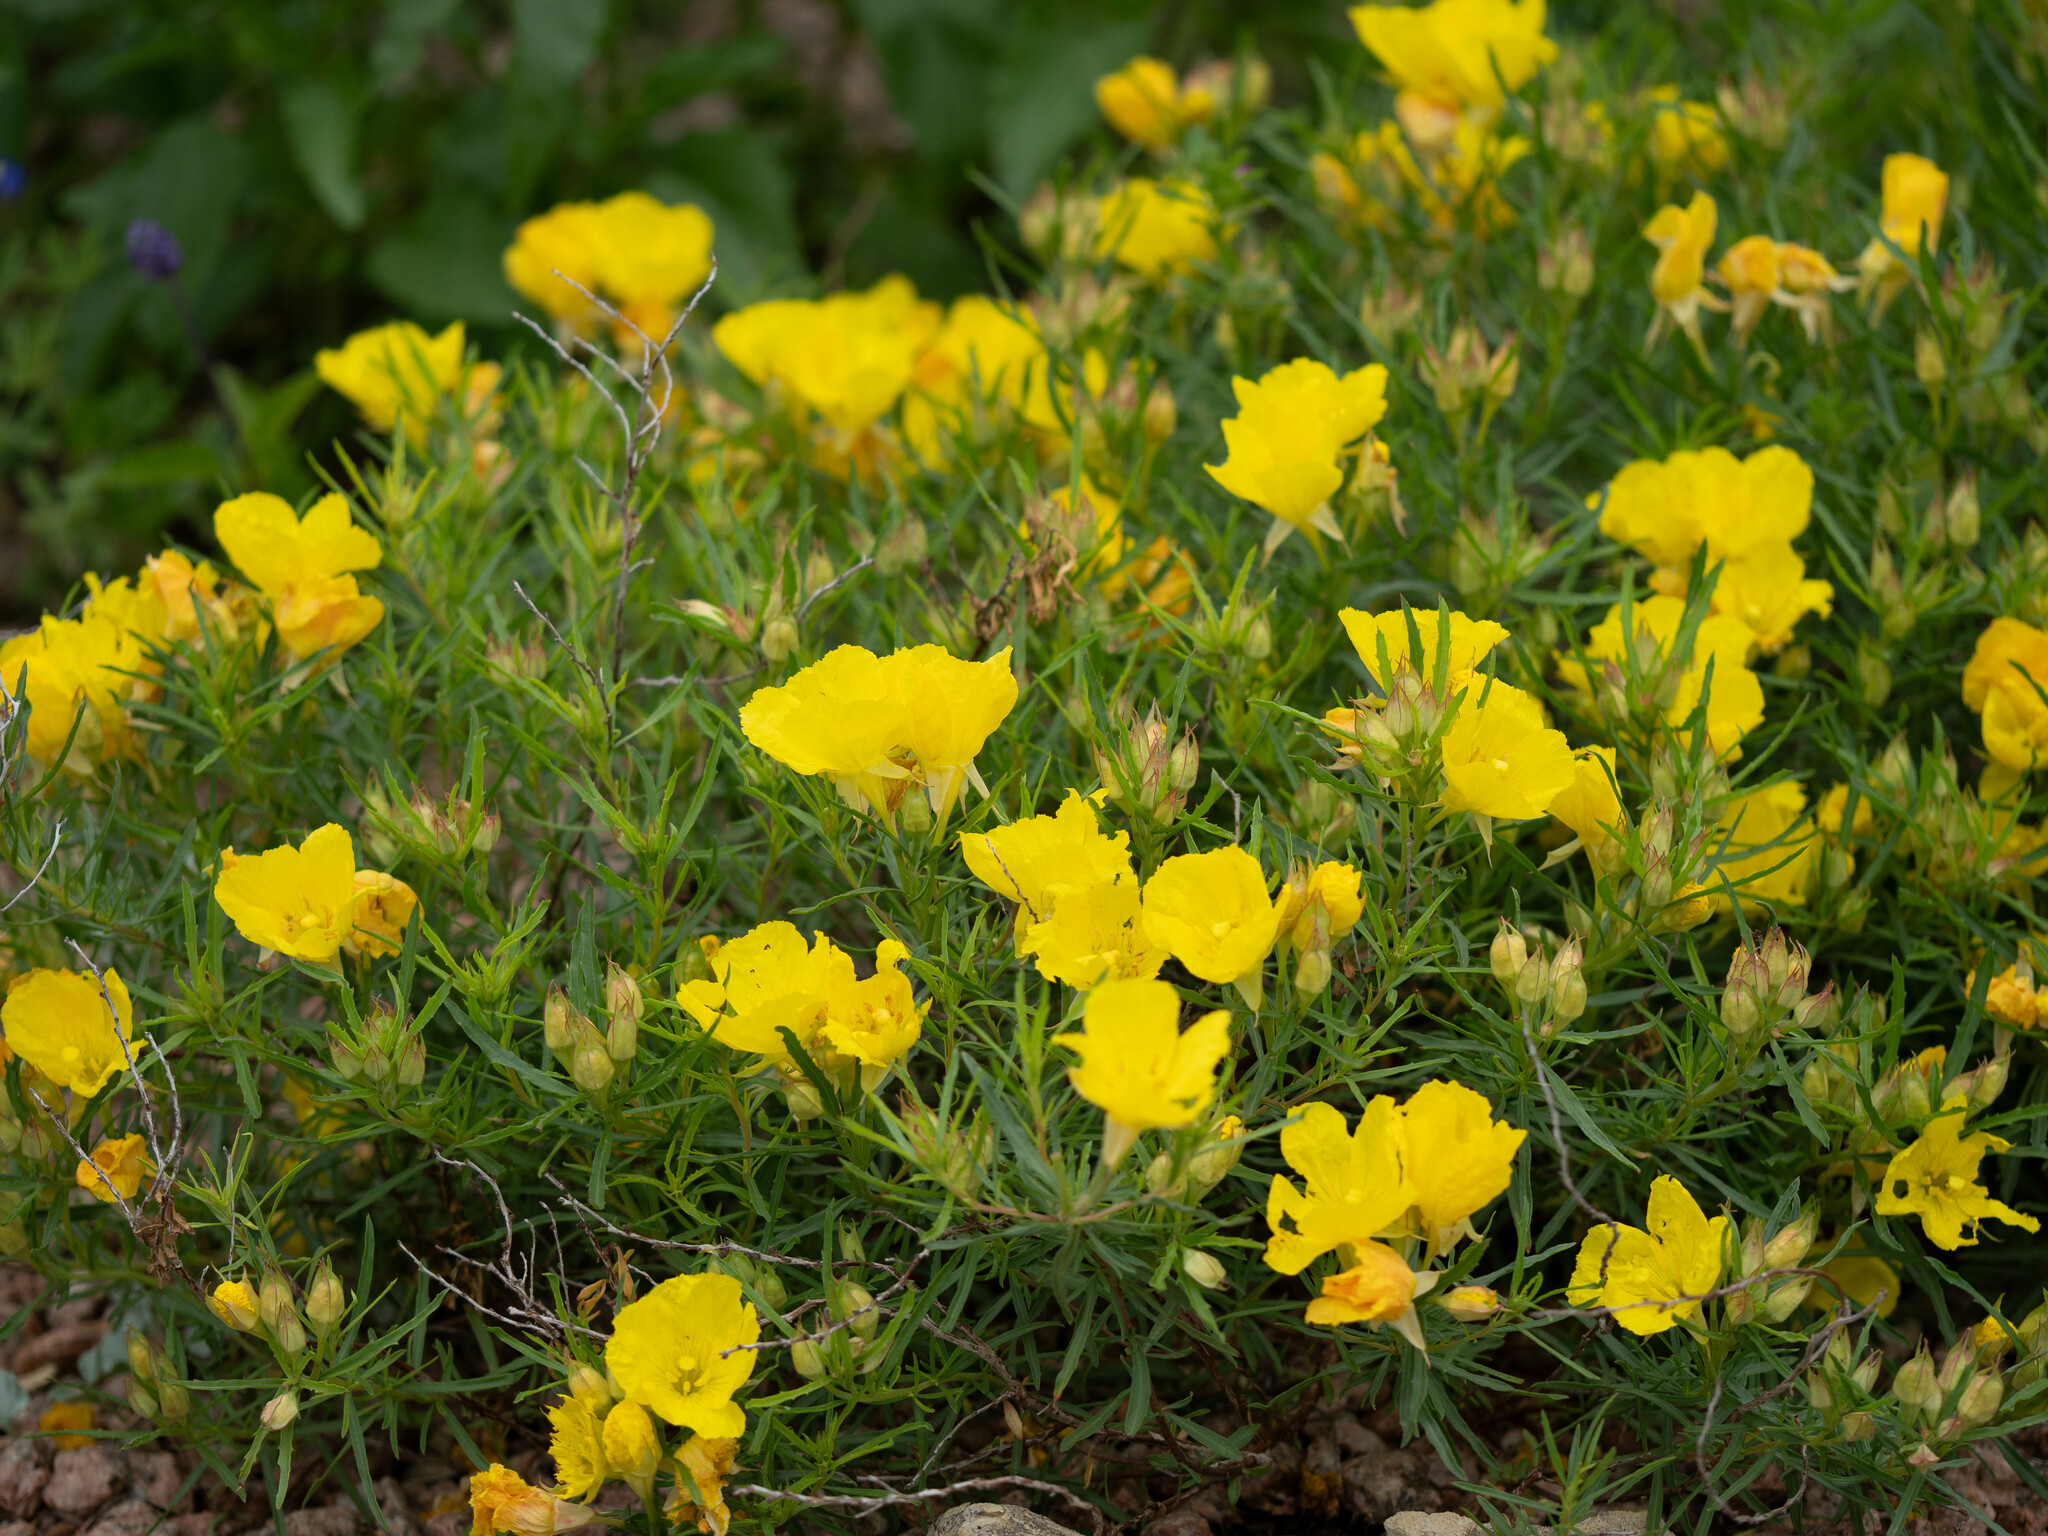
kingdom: Plantae
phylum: Tracheophyta
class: Magnoliopsida
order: Myrtales
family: Onagraceae
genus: Oenothera
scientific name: Oenothera
